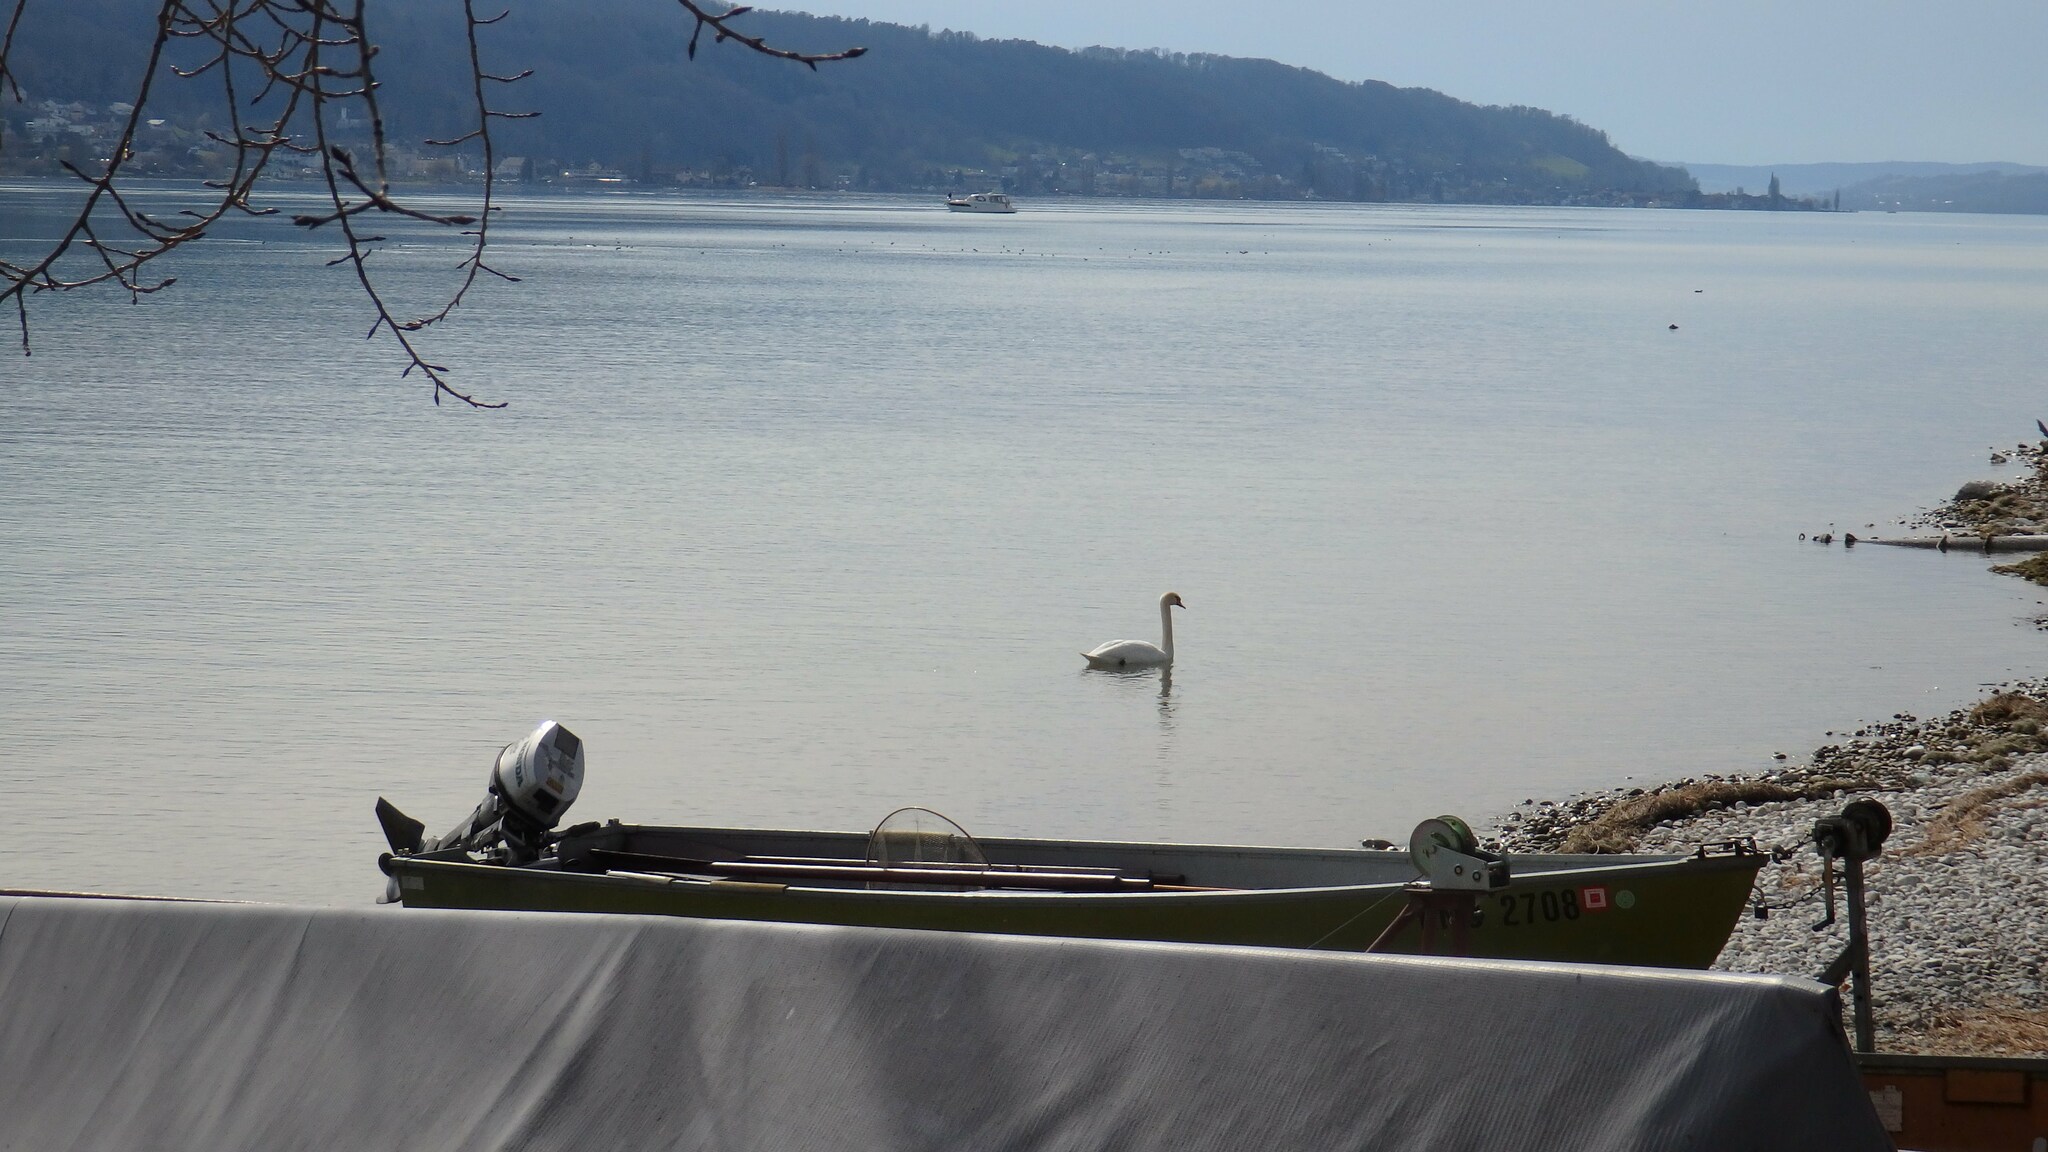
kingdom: Animalia
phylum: Chordata
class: Aves
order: Anseriformes
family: Anatidae
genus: Cygnus
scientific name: Cygnus olor
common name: Mute swan
